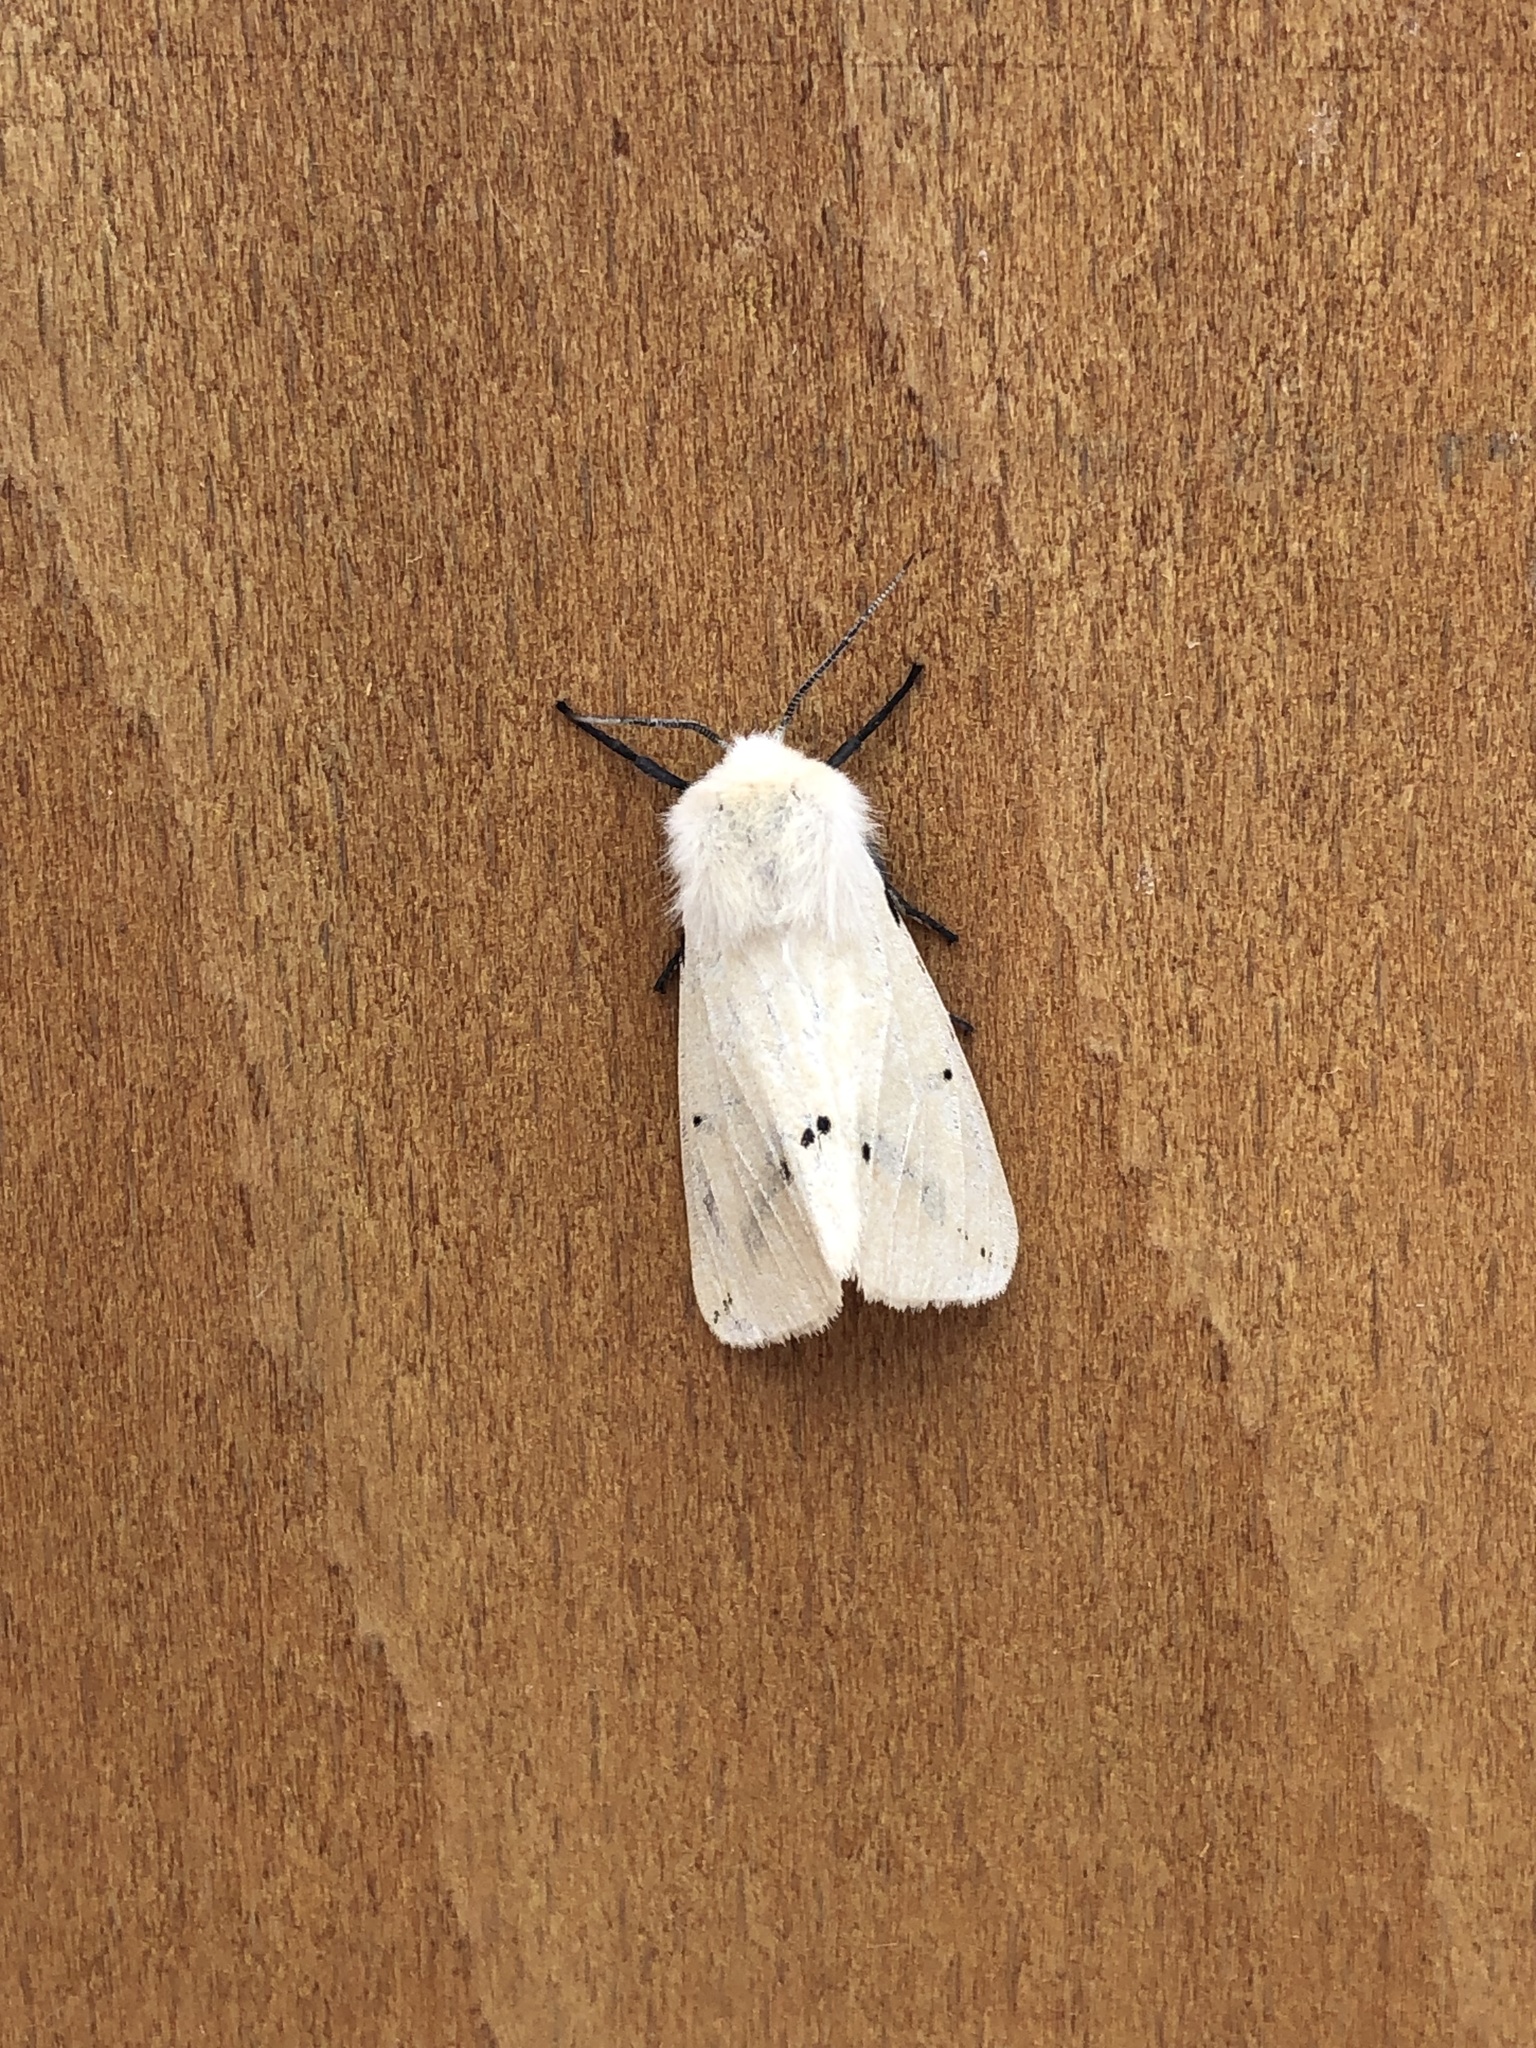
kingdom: Animalia
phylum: Arthropoda
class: Insecta
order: Lepidoptera
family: Erebidae
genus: Spilarctia
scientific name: Spilarctia lutea
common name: Buff ermine
